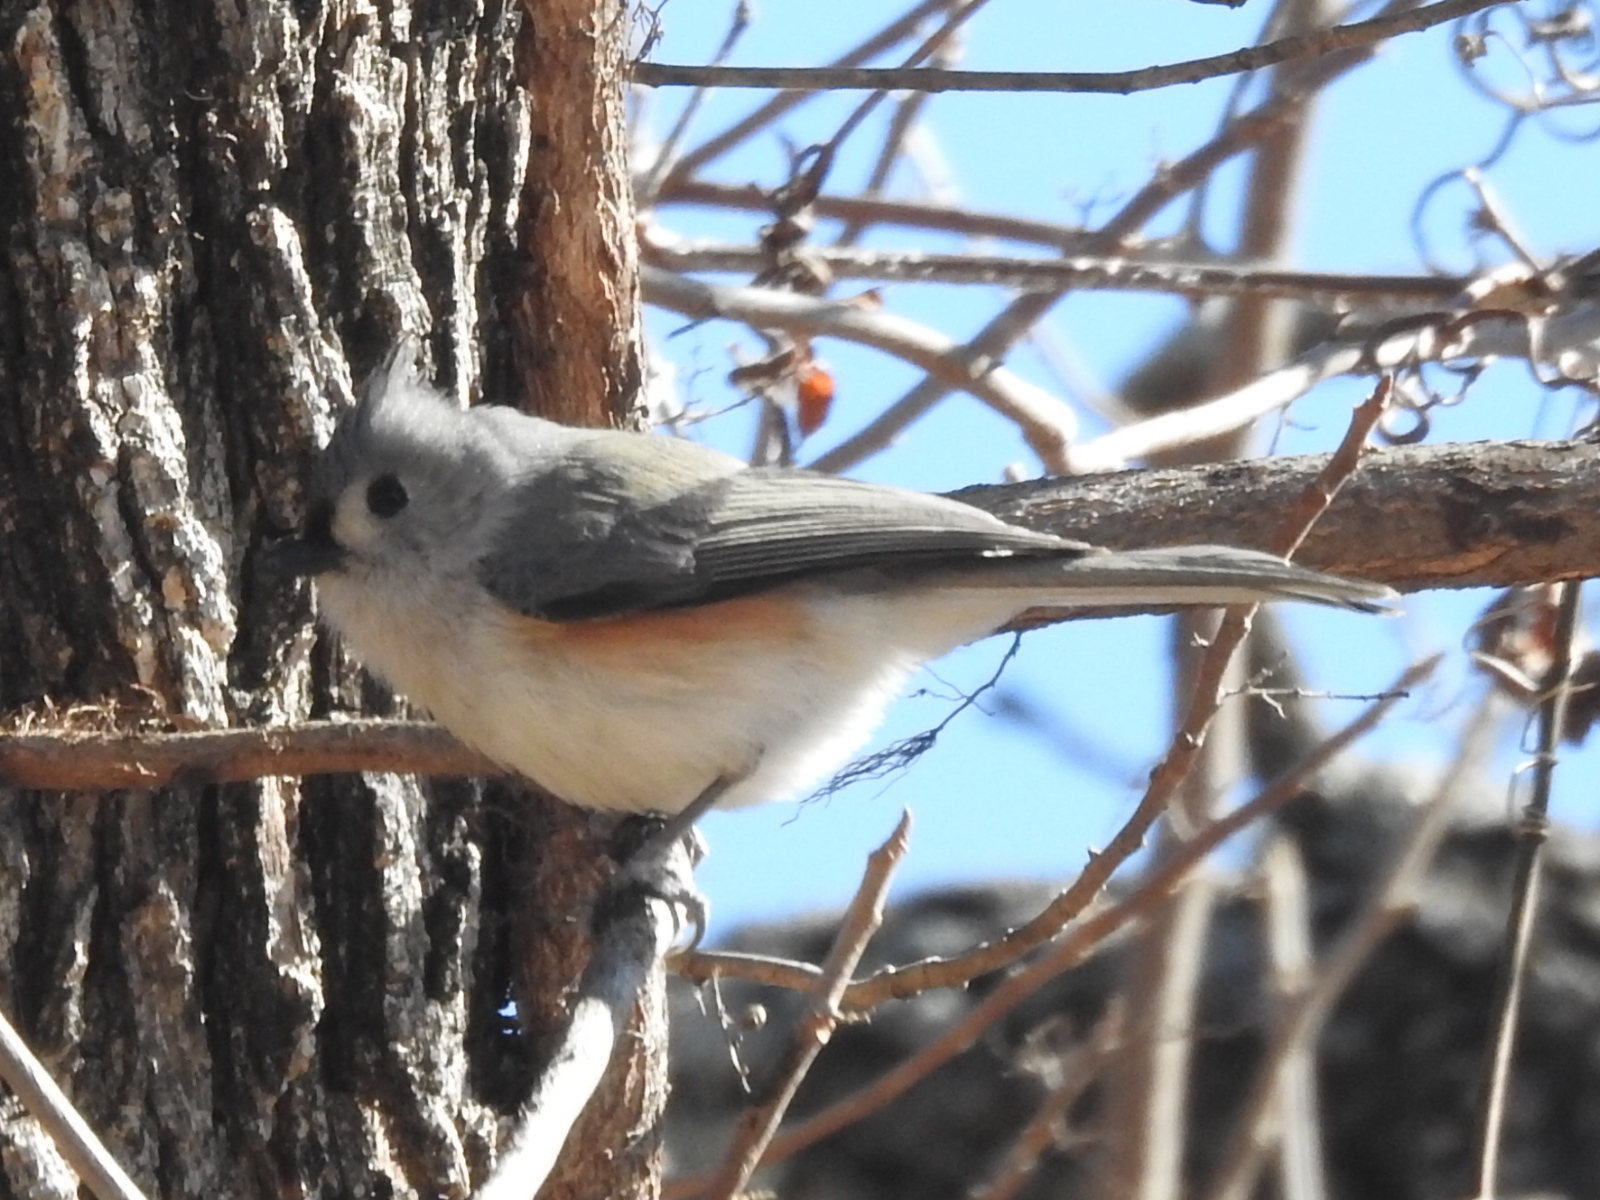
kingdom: Animalia
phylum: Chordata
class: Aves
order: Passeriformes
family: Paridae
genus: Baeolophus
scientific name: Baeolophus bicolor
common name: Tufted titmouse
